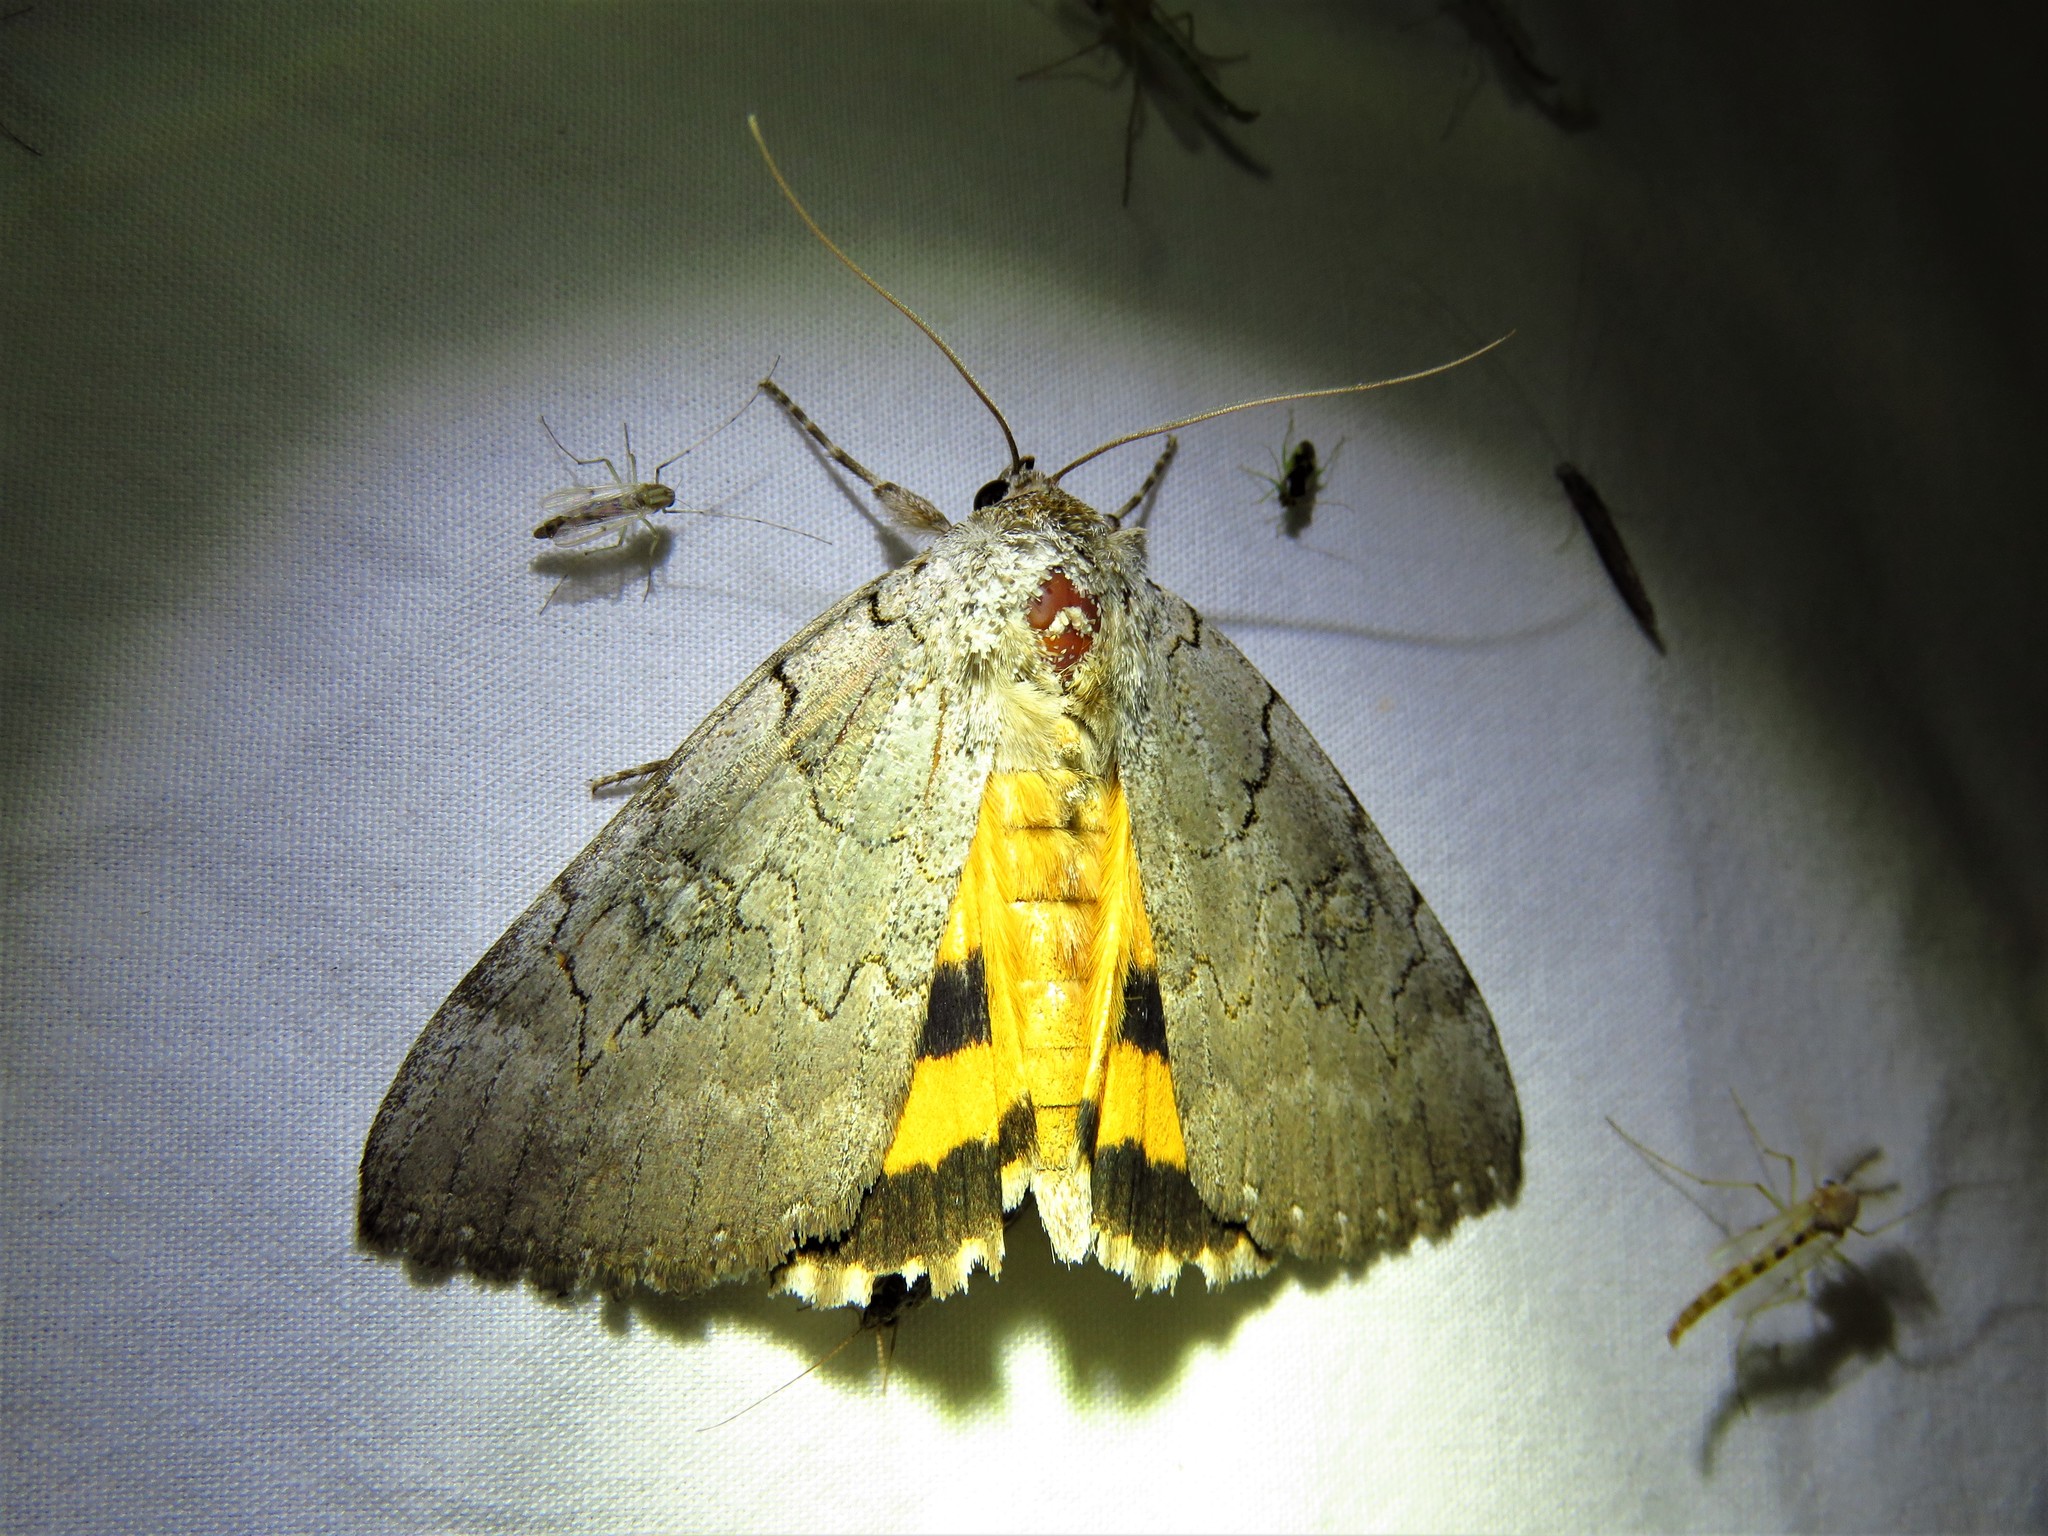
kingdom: Animalia
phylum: Arthropoda
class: Insecta
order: Lepidoptera
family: Erebidae
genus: Catocala
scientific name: Catocala illecta
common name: Magdalen underwing
